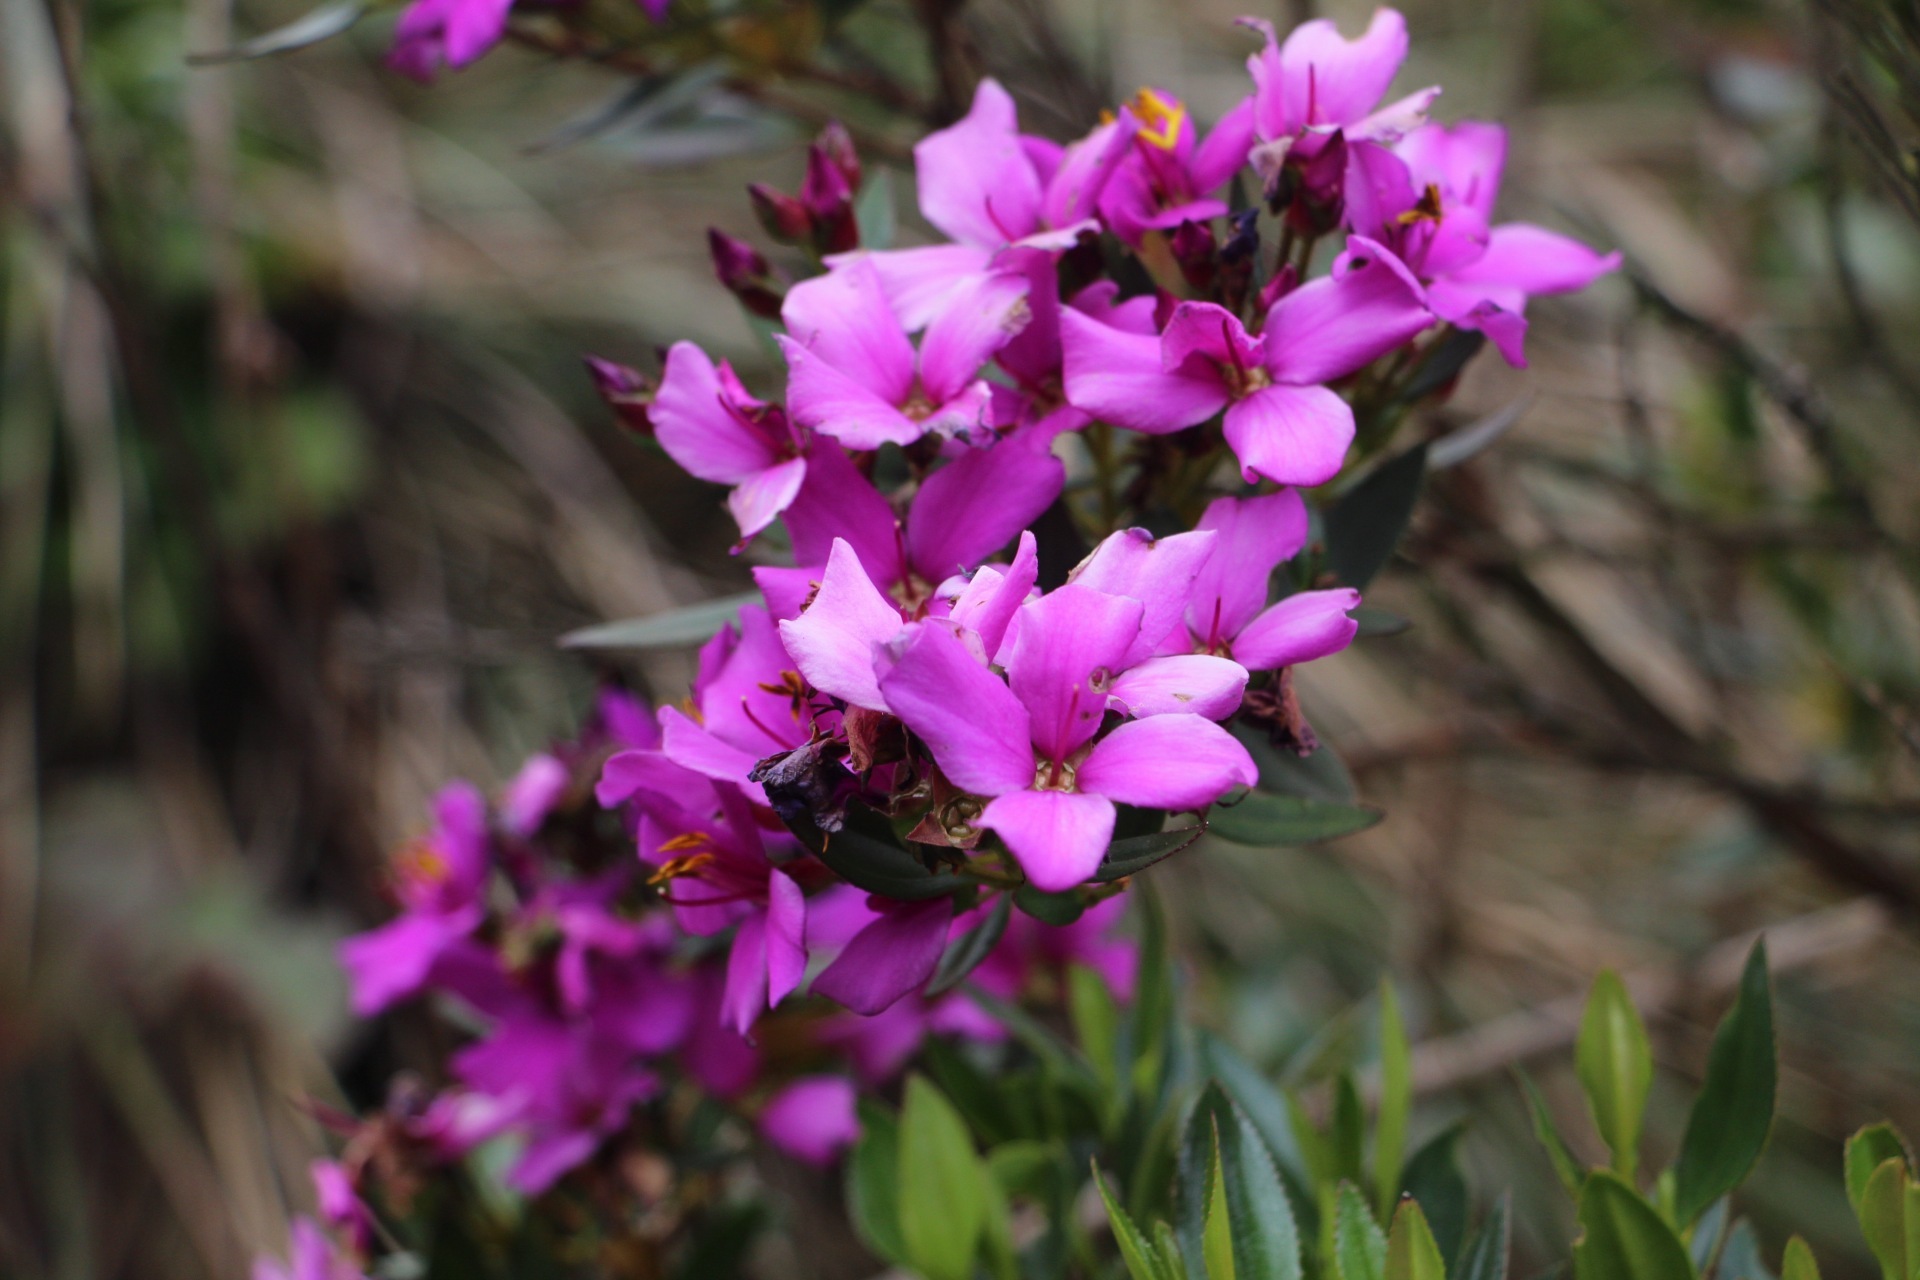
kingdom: Plantae
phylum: Tracheophyta
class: Magnoliopsida
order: Myrtales
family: Melastomataceae
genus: Bucquetia
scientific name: Bucquetia glutinosa
